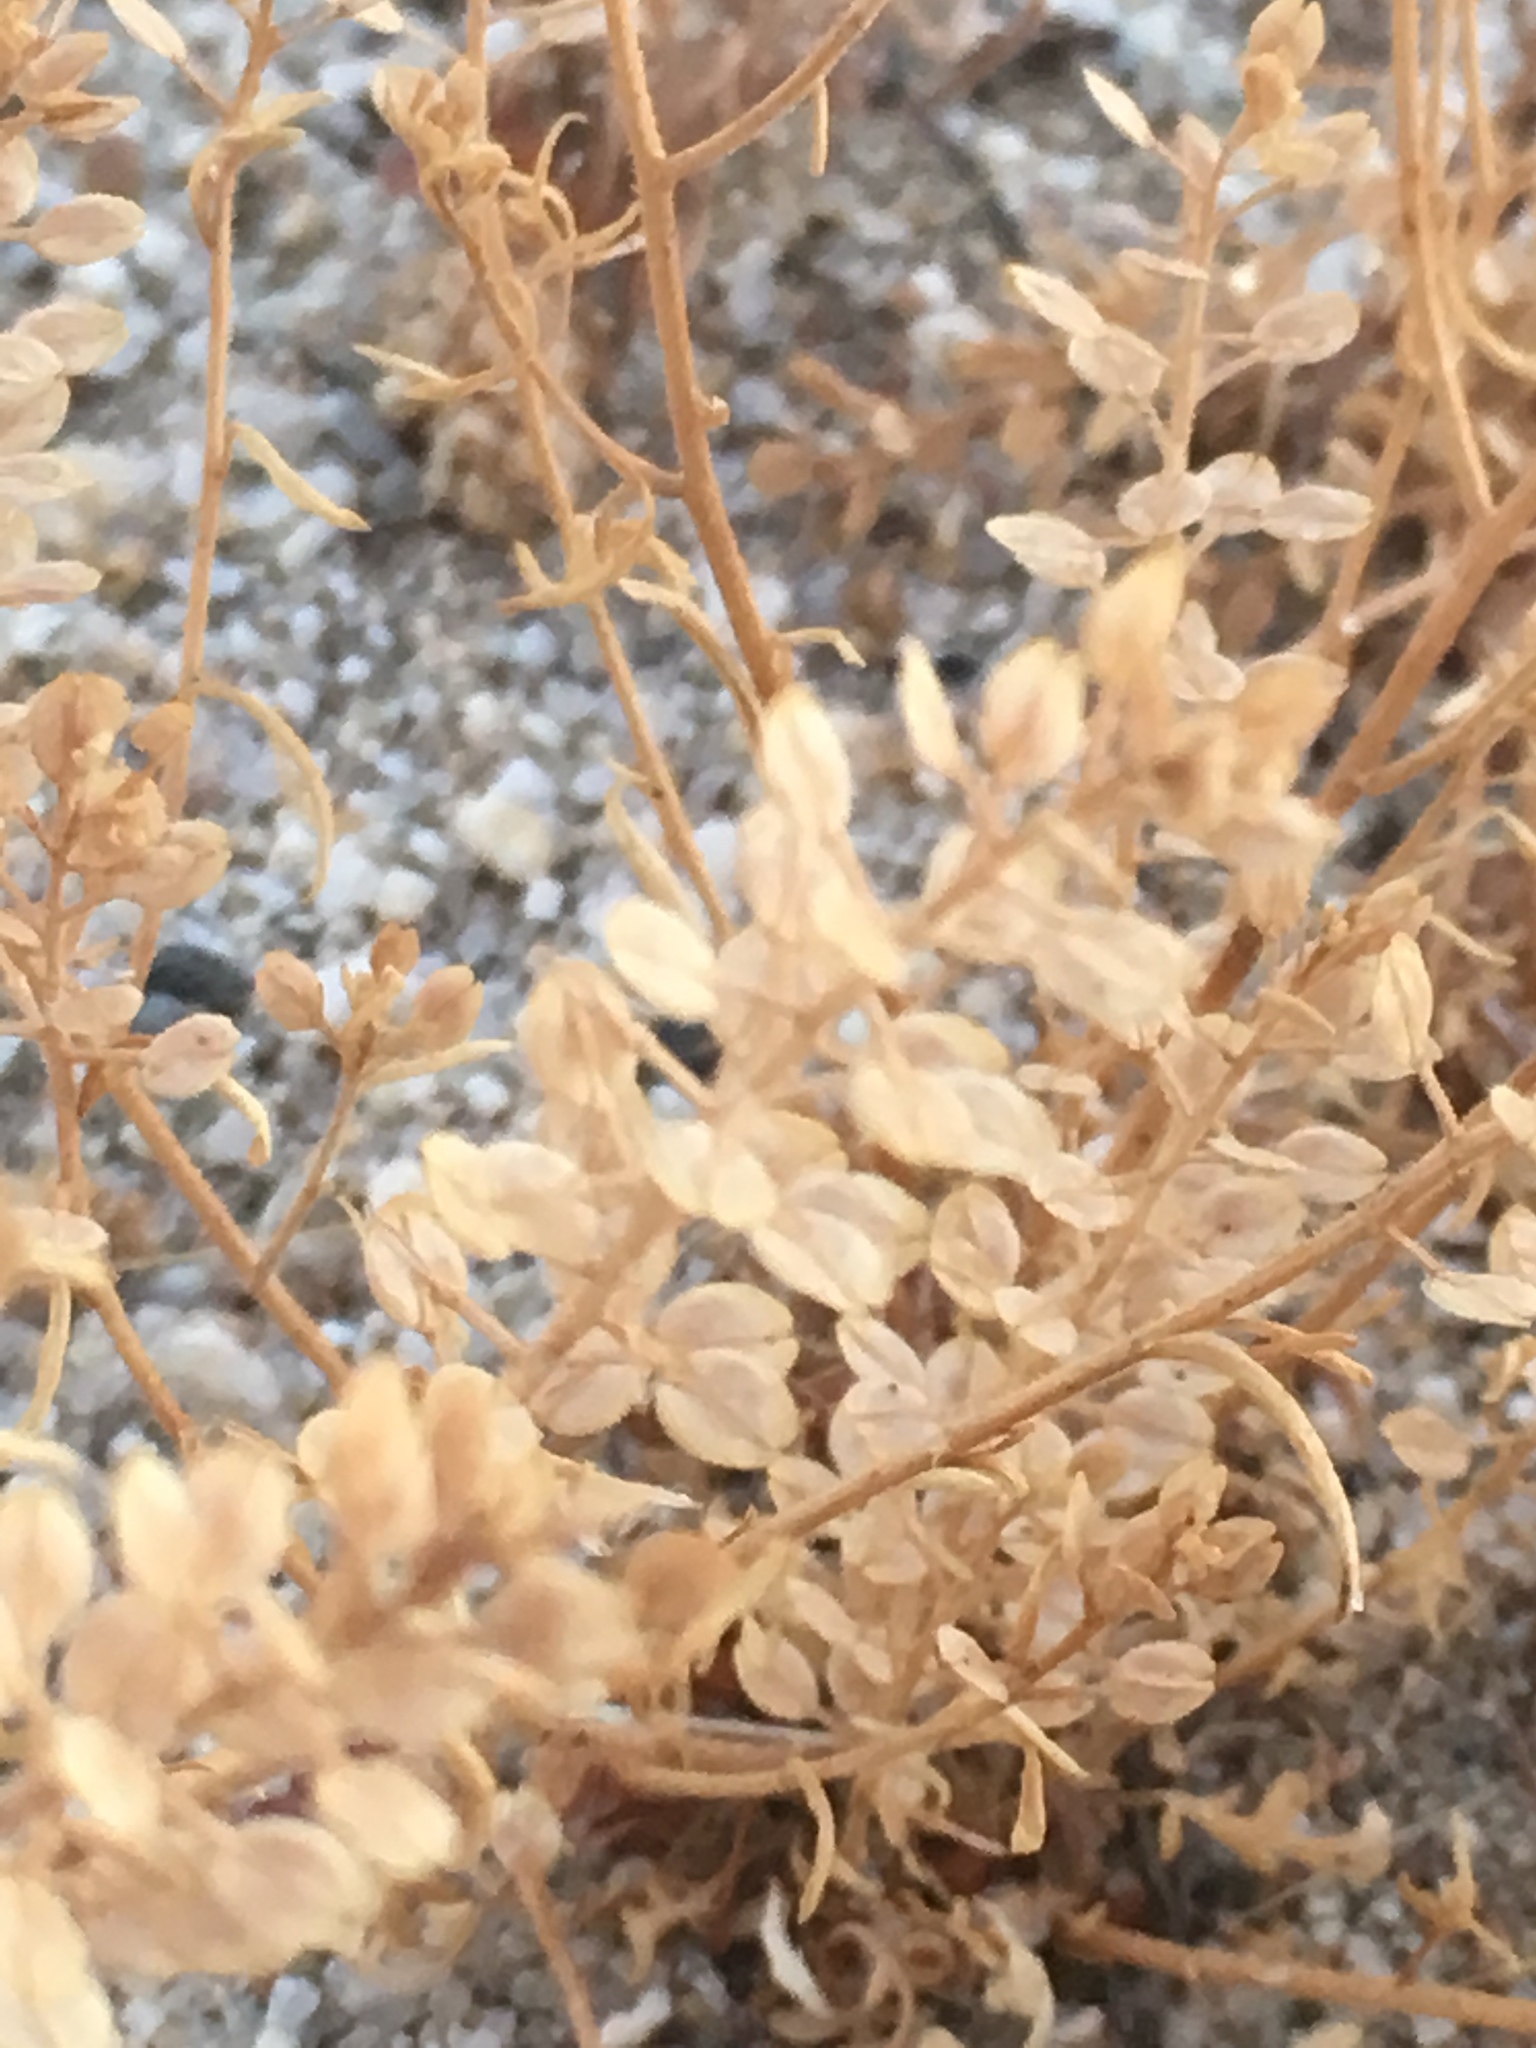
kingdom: Plantae
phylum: Tracheophyta
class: Magnoliopsida
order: Brassicales
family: Brassicaceae
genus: Lepidium
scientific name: Lepidium lasiocarpum
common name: Hairy-pod pepperwort
